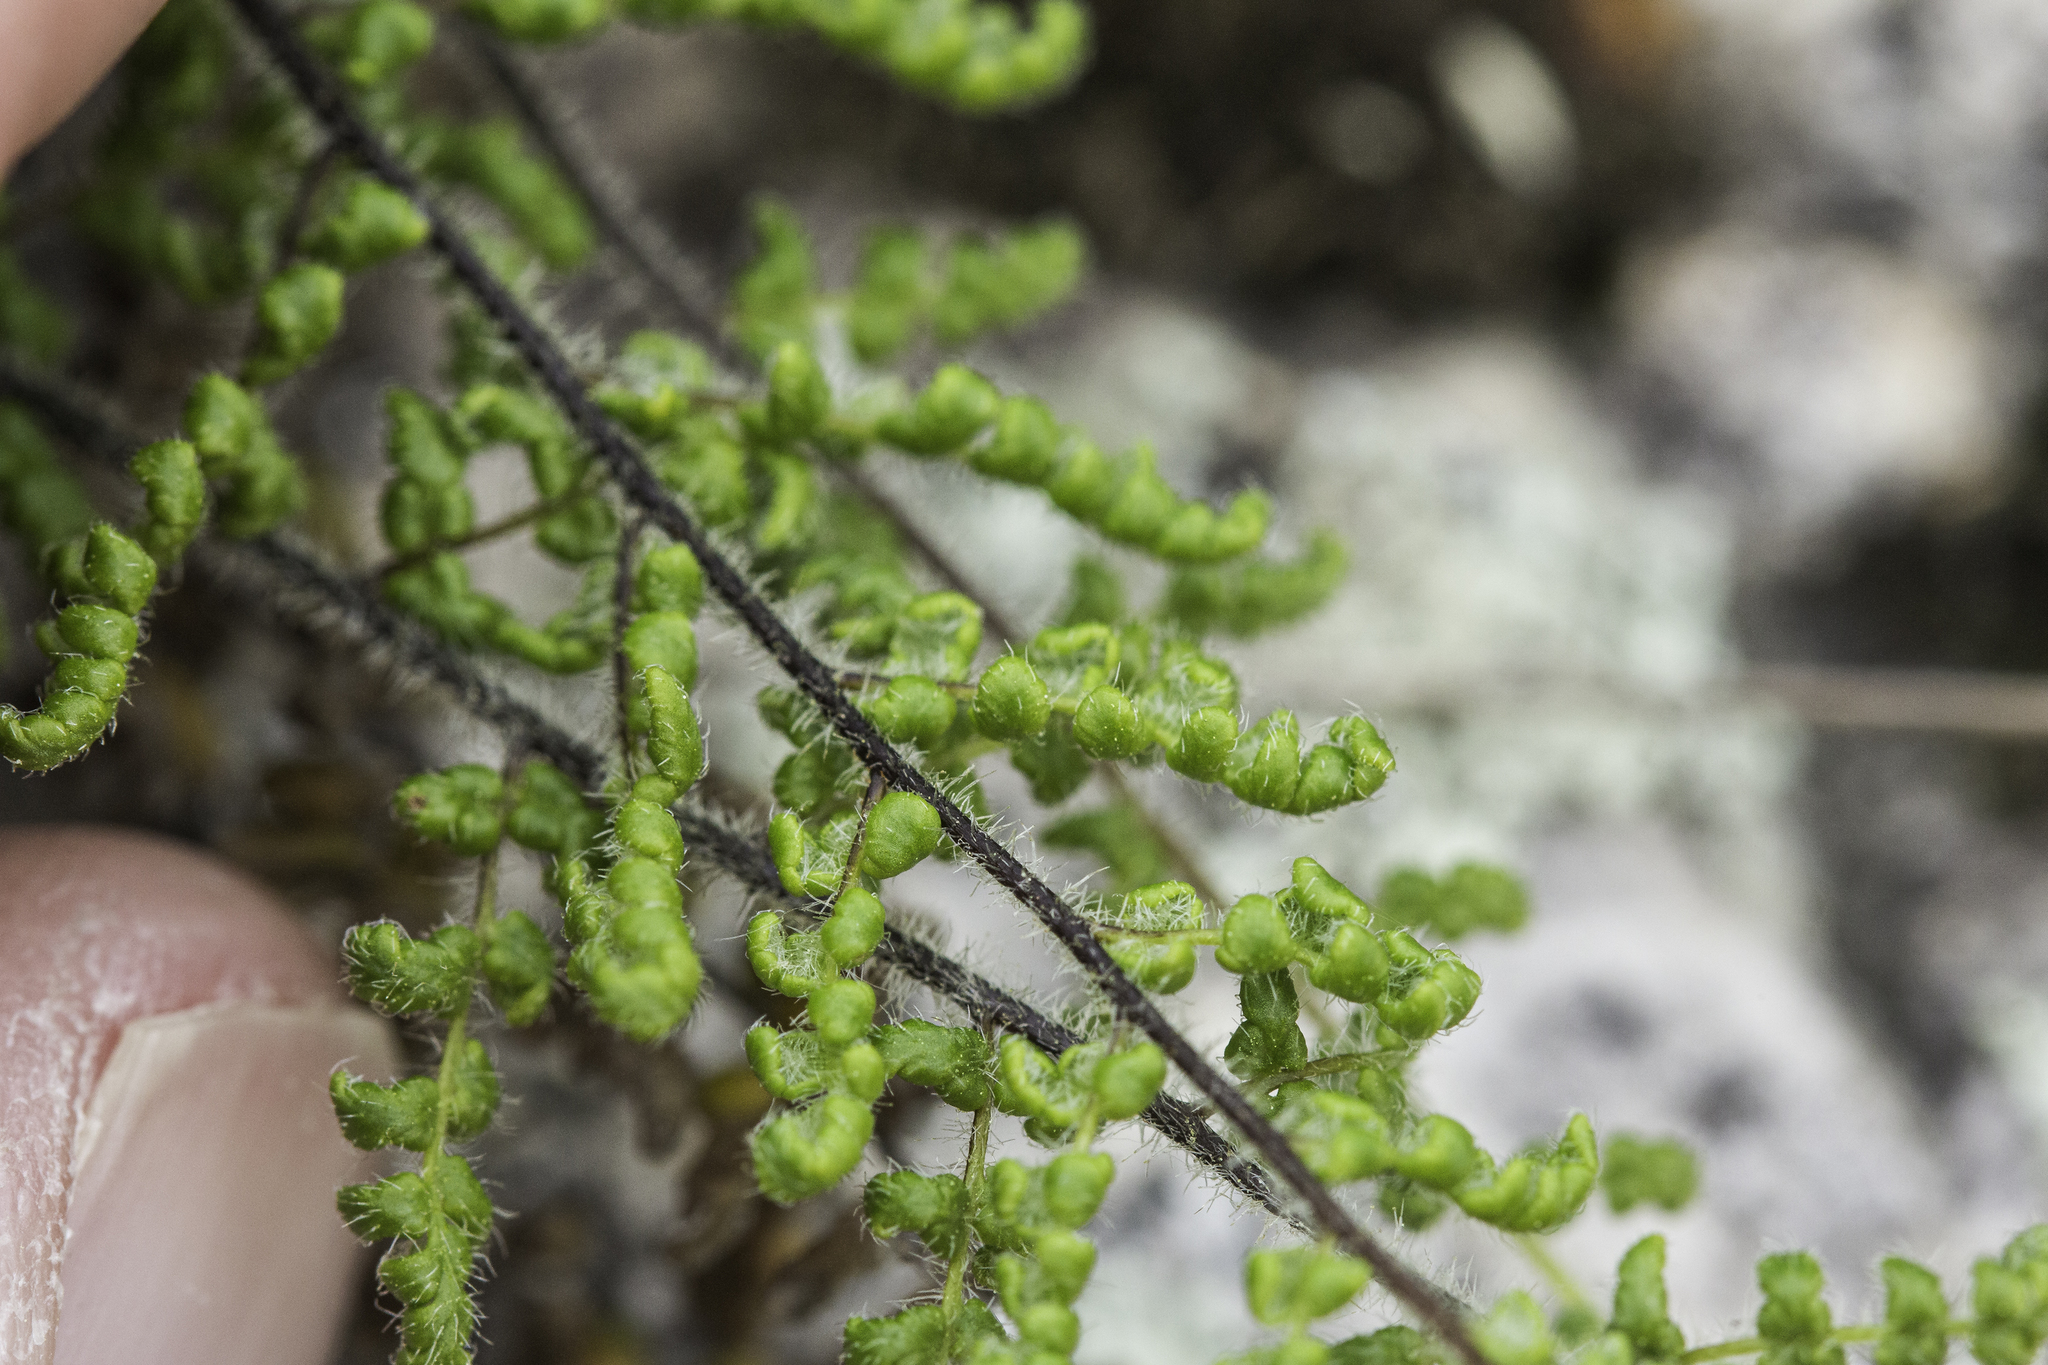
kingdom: Plantae
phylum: Tracheophyta
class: Polypodiopsida
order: Polypodiales
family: Pteridaceae
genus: Myriopteris
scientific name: Myriopteris lanosa
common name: Hairy lip fern
